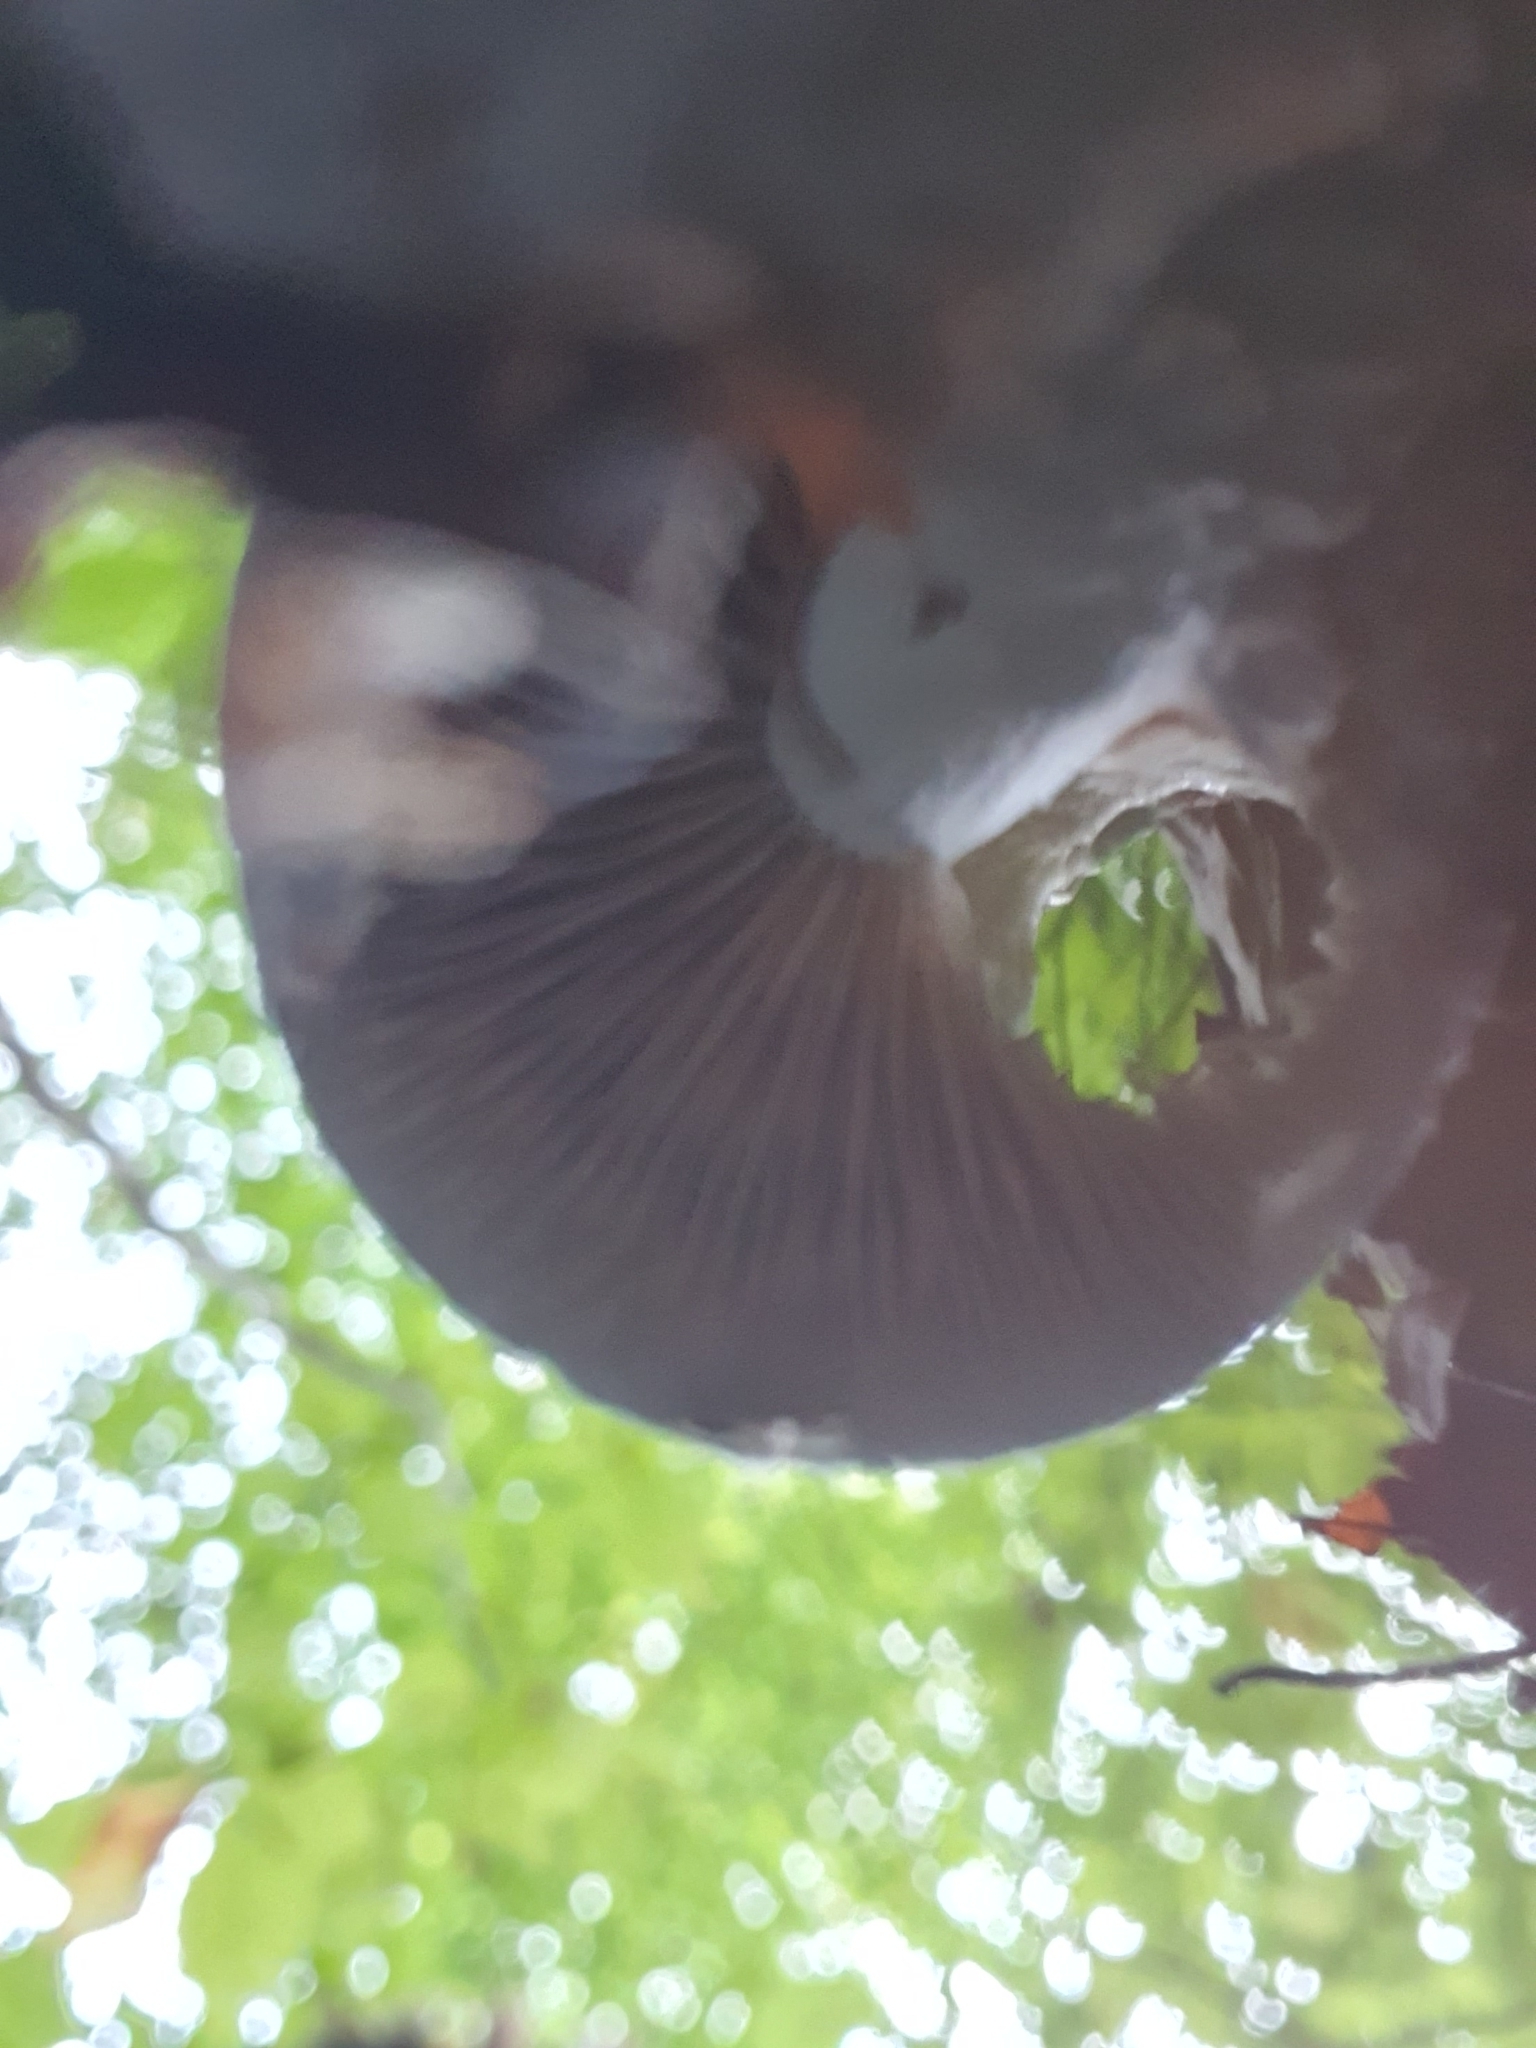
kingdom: Fungi
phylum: Basidiomycota
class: Agaricomycetes
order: Agaricales
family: Strophariaceae
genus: Stropharia
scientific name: Stropharia aeruginosa
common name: Verdigris roundhead
